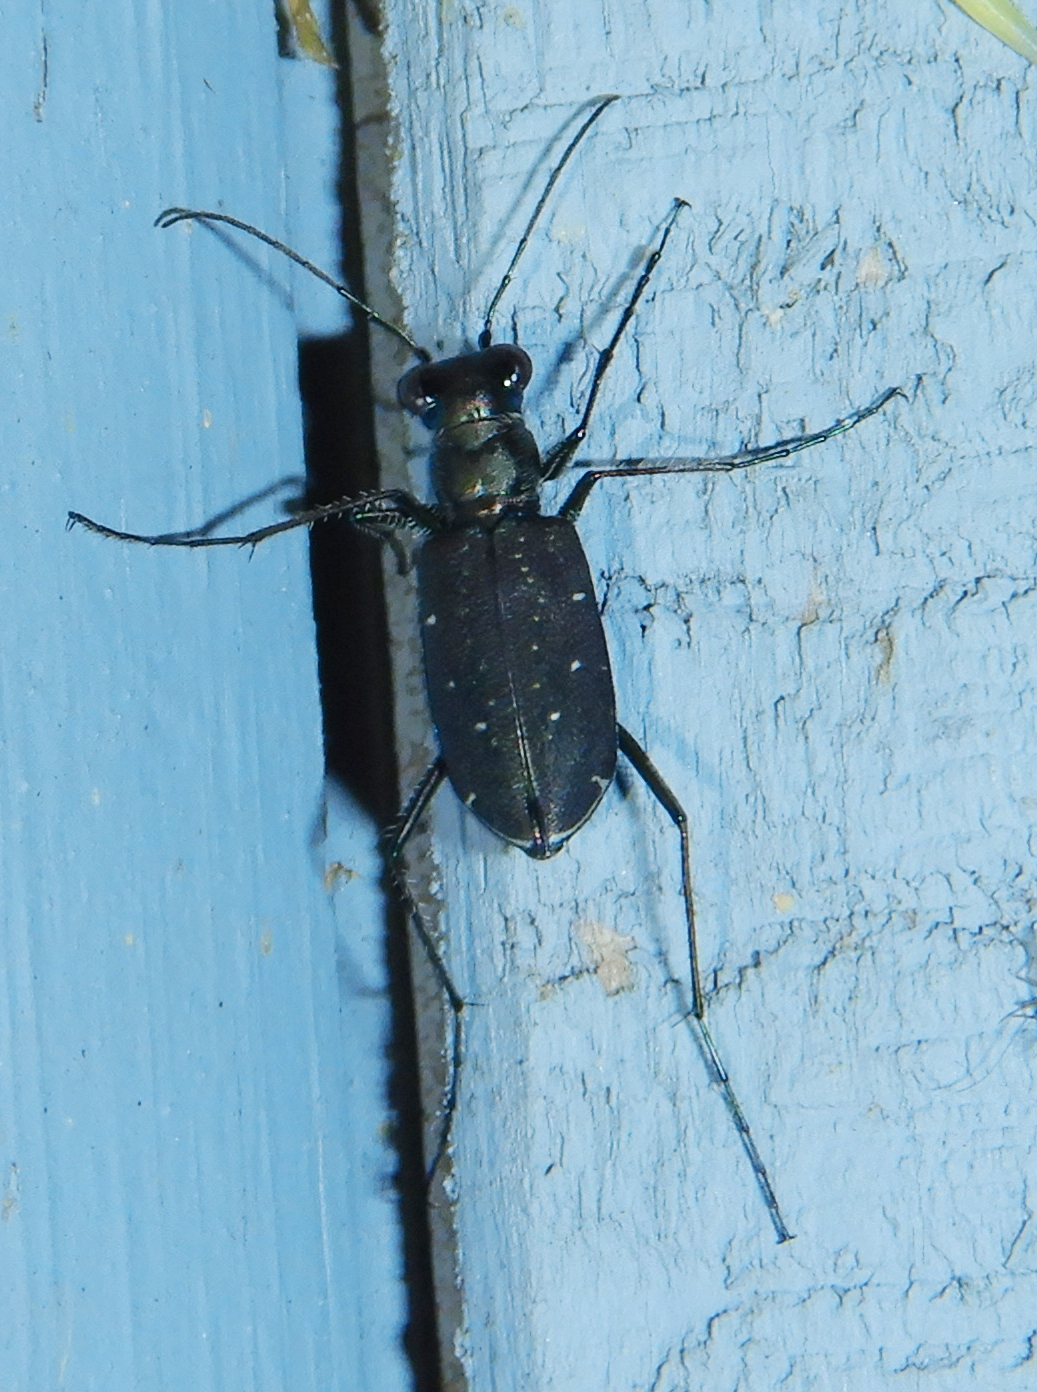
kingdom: Animalia
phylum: Arthropoda
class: Insecta
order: Coleoptera
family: Carabidae
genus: Cicindela
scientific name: Cicindela punctulata
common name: Punctured tiger beetle
